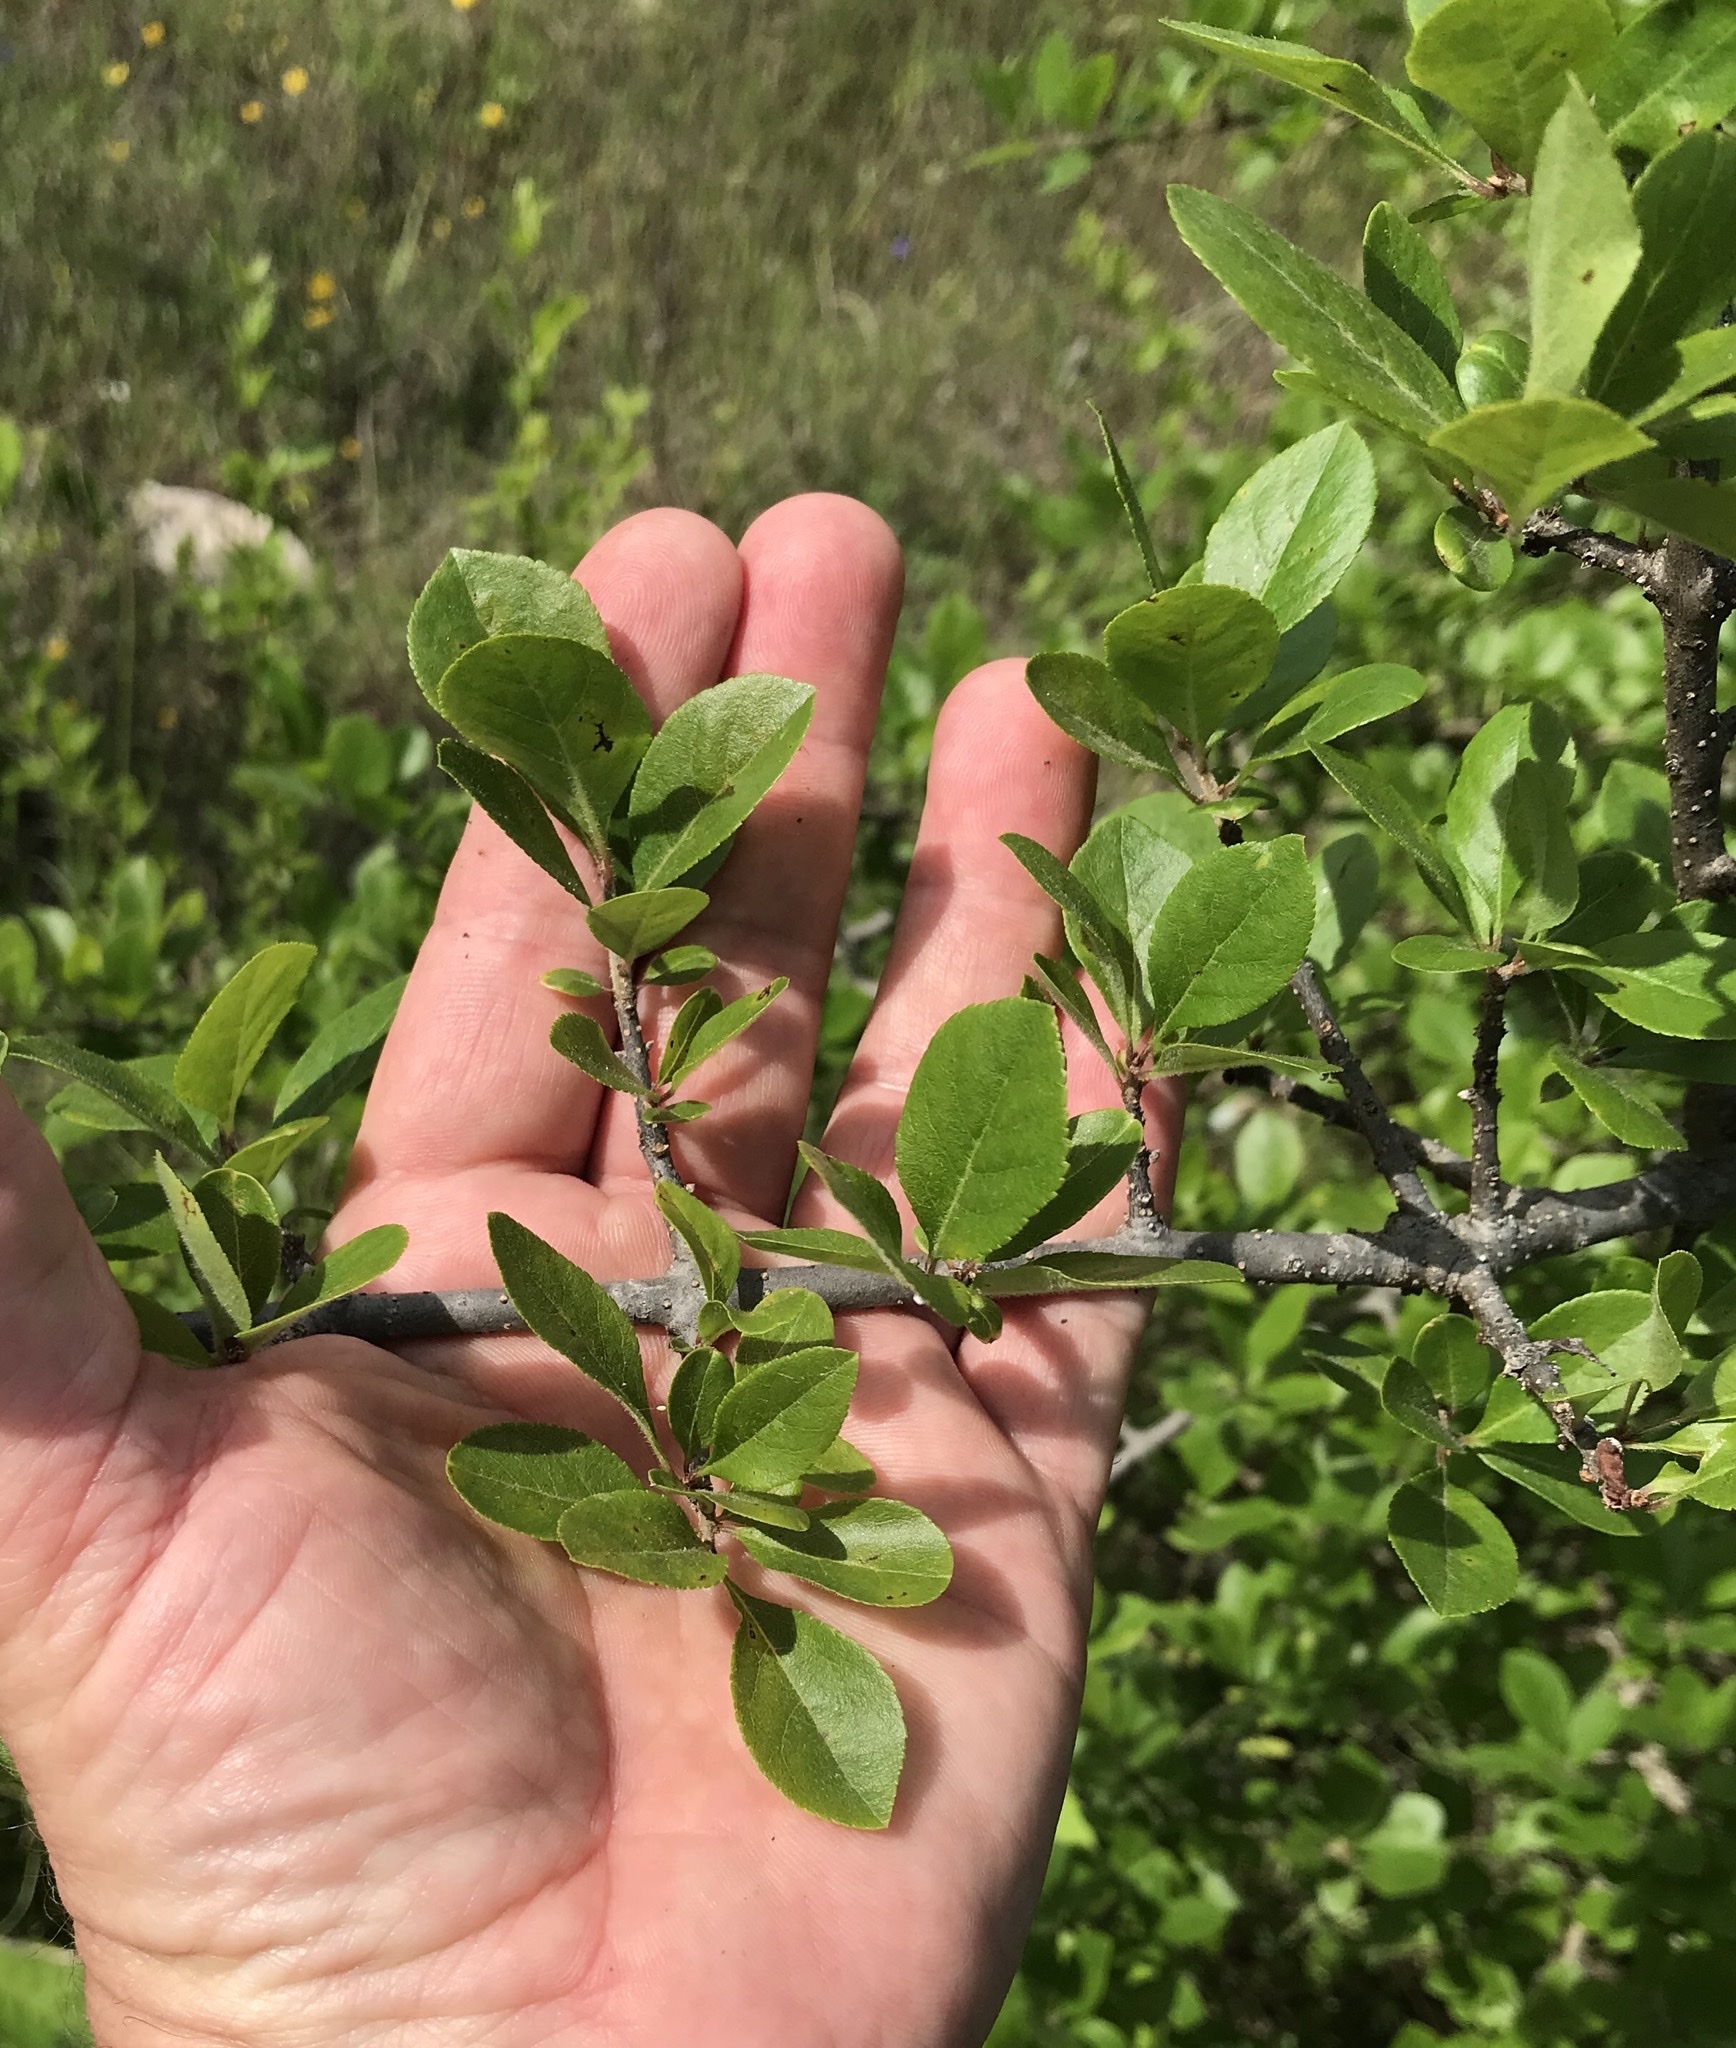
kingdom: Plantae
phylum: Tracheophyta
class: Magnoliopsida
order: Lamiales
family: Oleaceae
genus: Forestiera
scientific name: Forestiera pubescens
